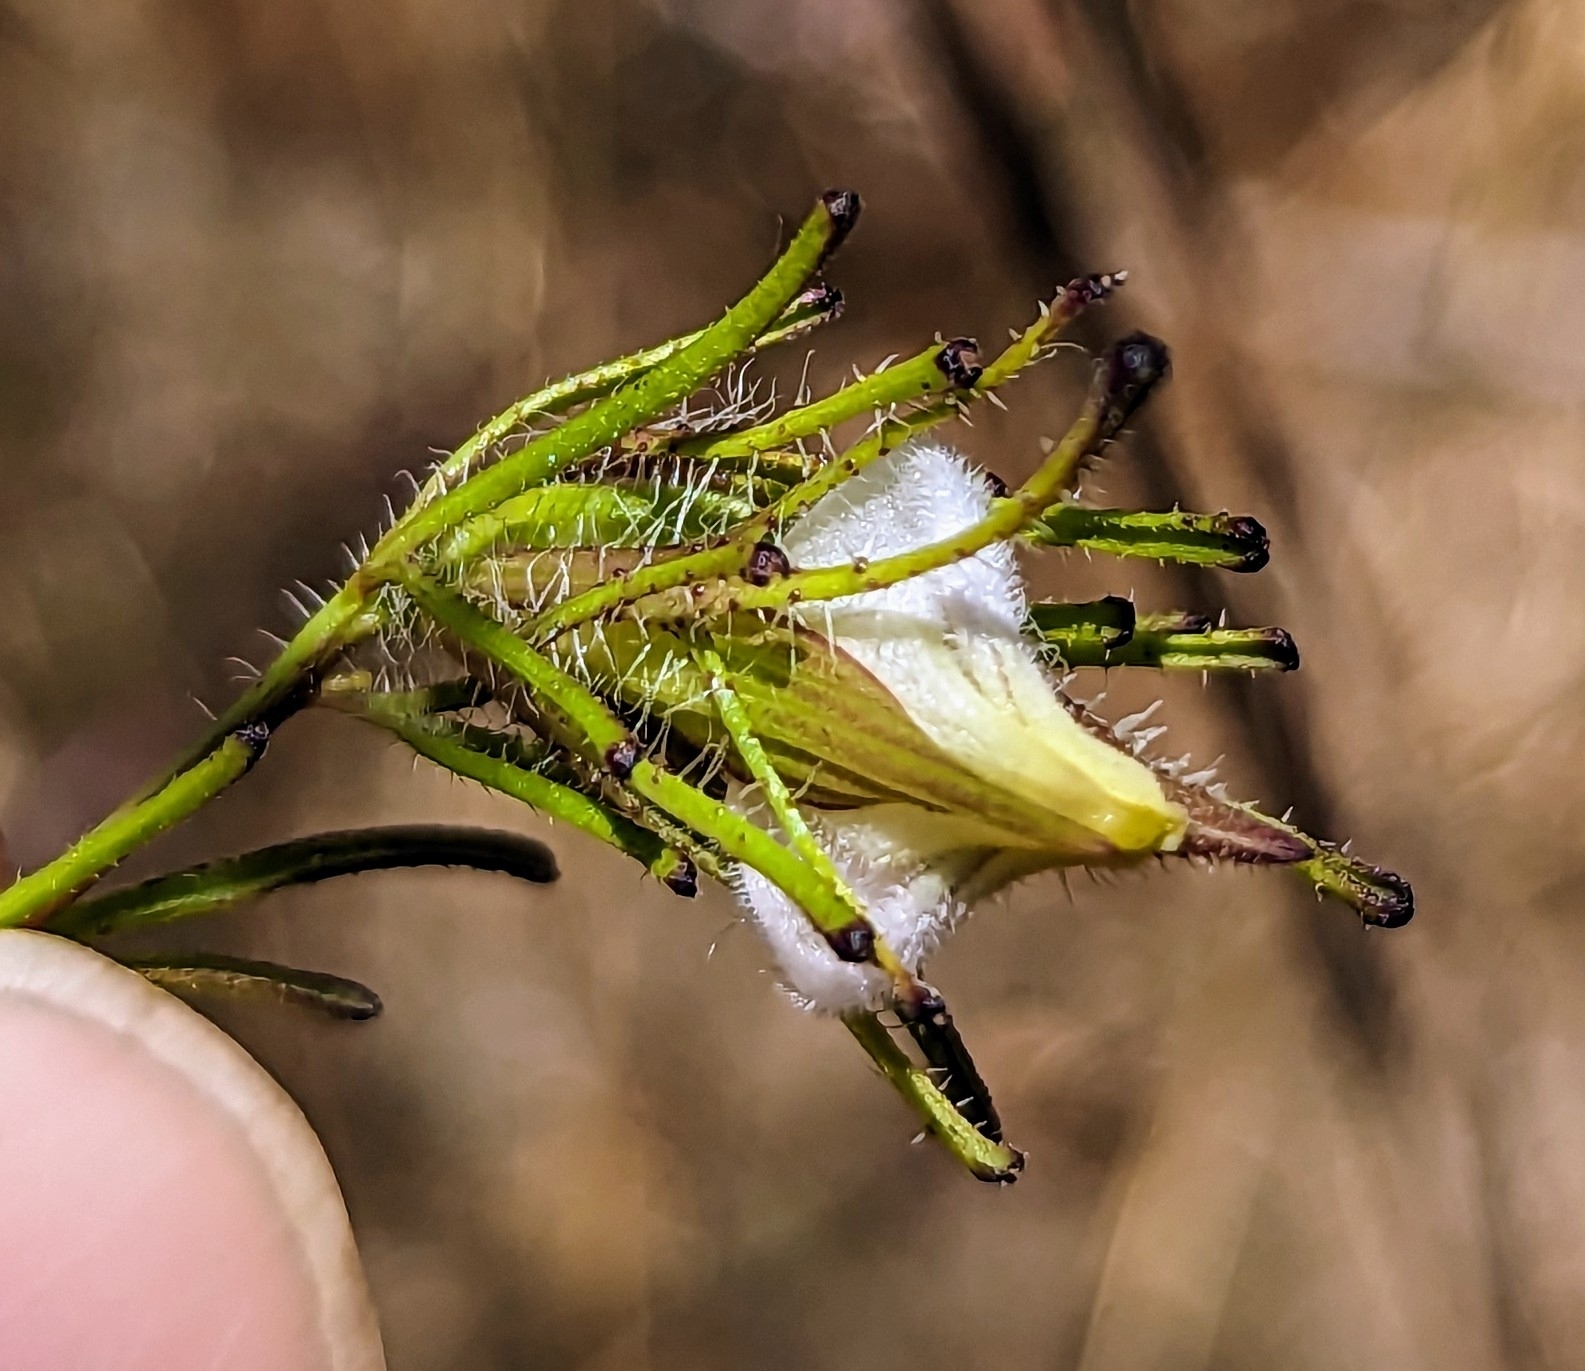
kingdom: Plantae
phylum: Tracheophyta
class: Magnoliopsida
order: Lamiales
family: Orobanchaceae
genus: Cordylanthus
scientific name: Cordylanthus rigidus
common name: Stiff-branch bird's-beak
